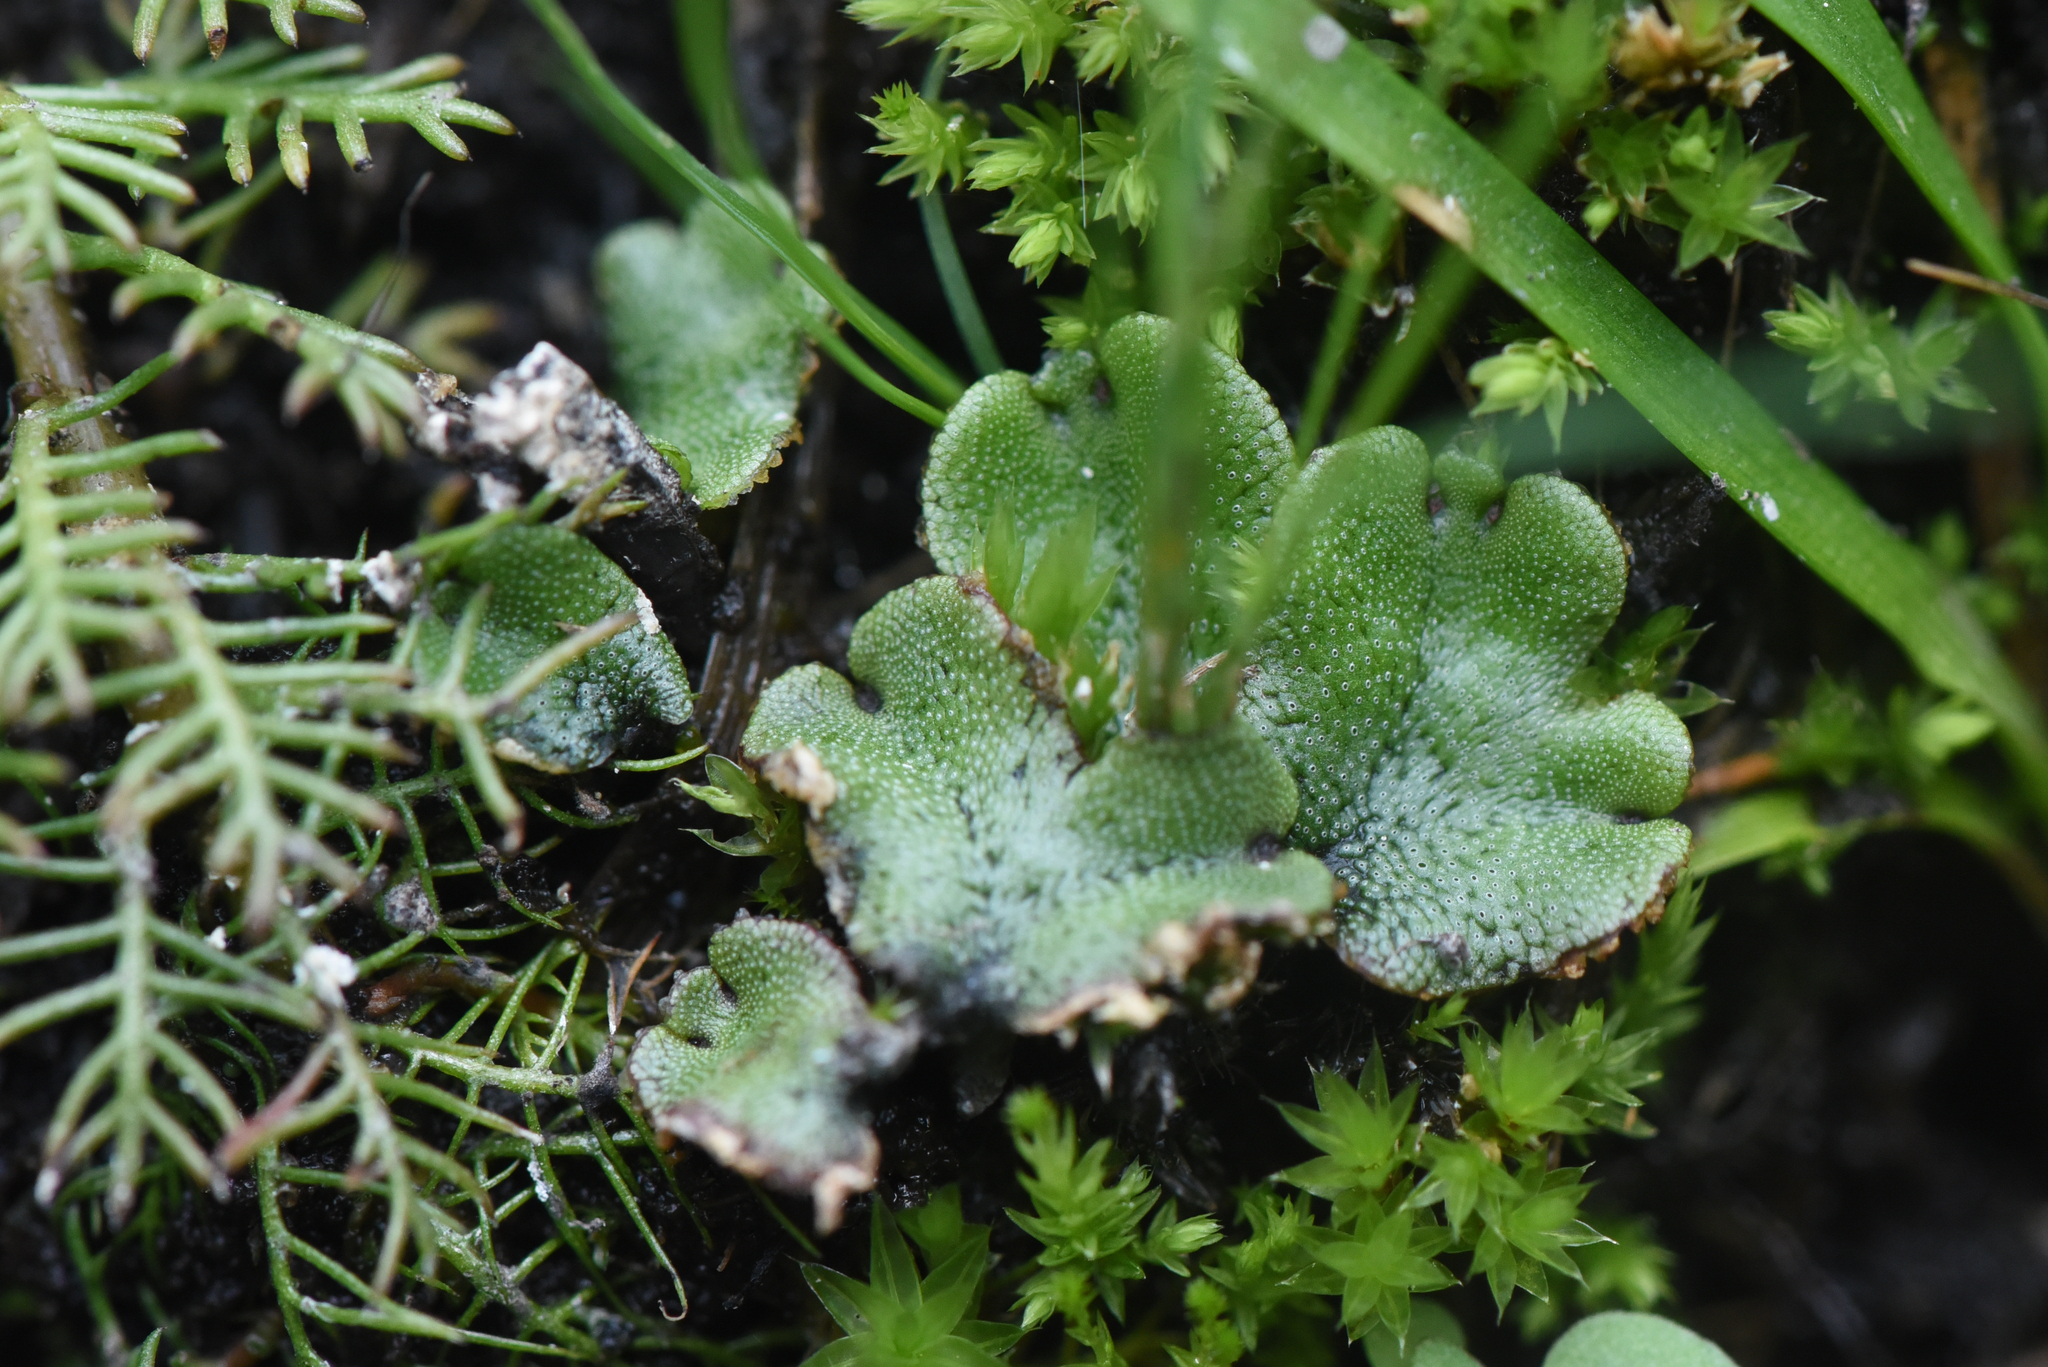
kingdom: Plantae
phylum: Marchantiophyta
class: Marchantiopsida
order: Marchantiales
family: Marchantiaceae
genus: Marchantia
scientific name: Marchantia polymorpha
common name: Common liverwort
